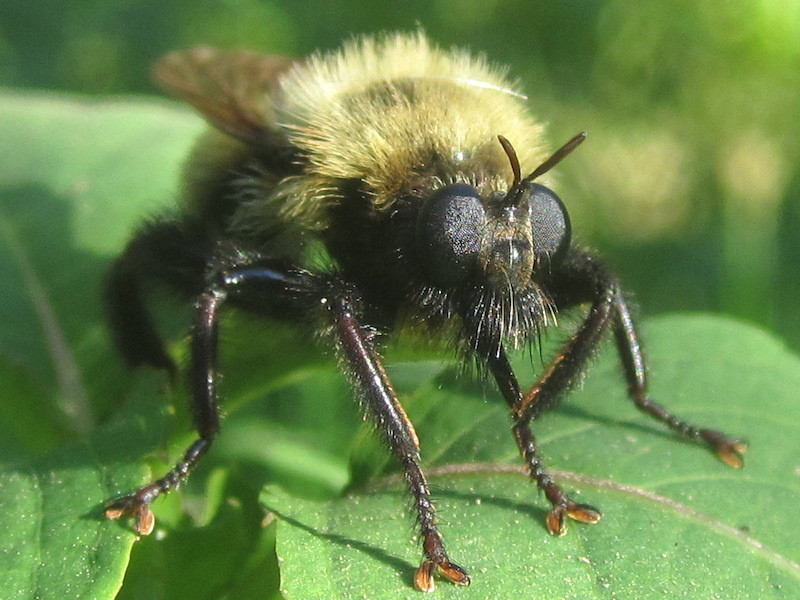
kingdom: Animalia
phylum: Arthropoda
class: Insecta
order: Diptera
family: Asilidae
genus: Laphria
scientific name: Laphria thoracica
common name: Bumble bee mimic robber fly
